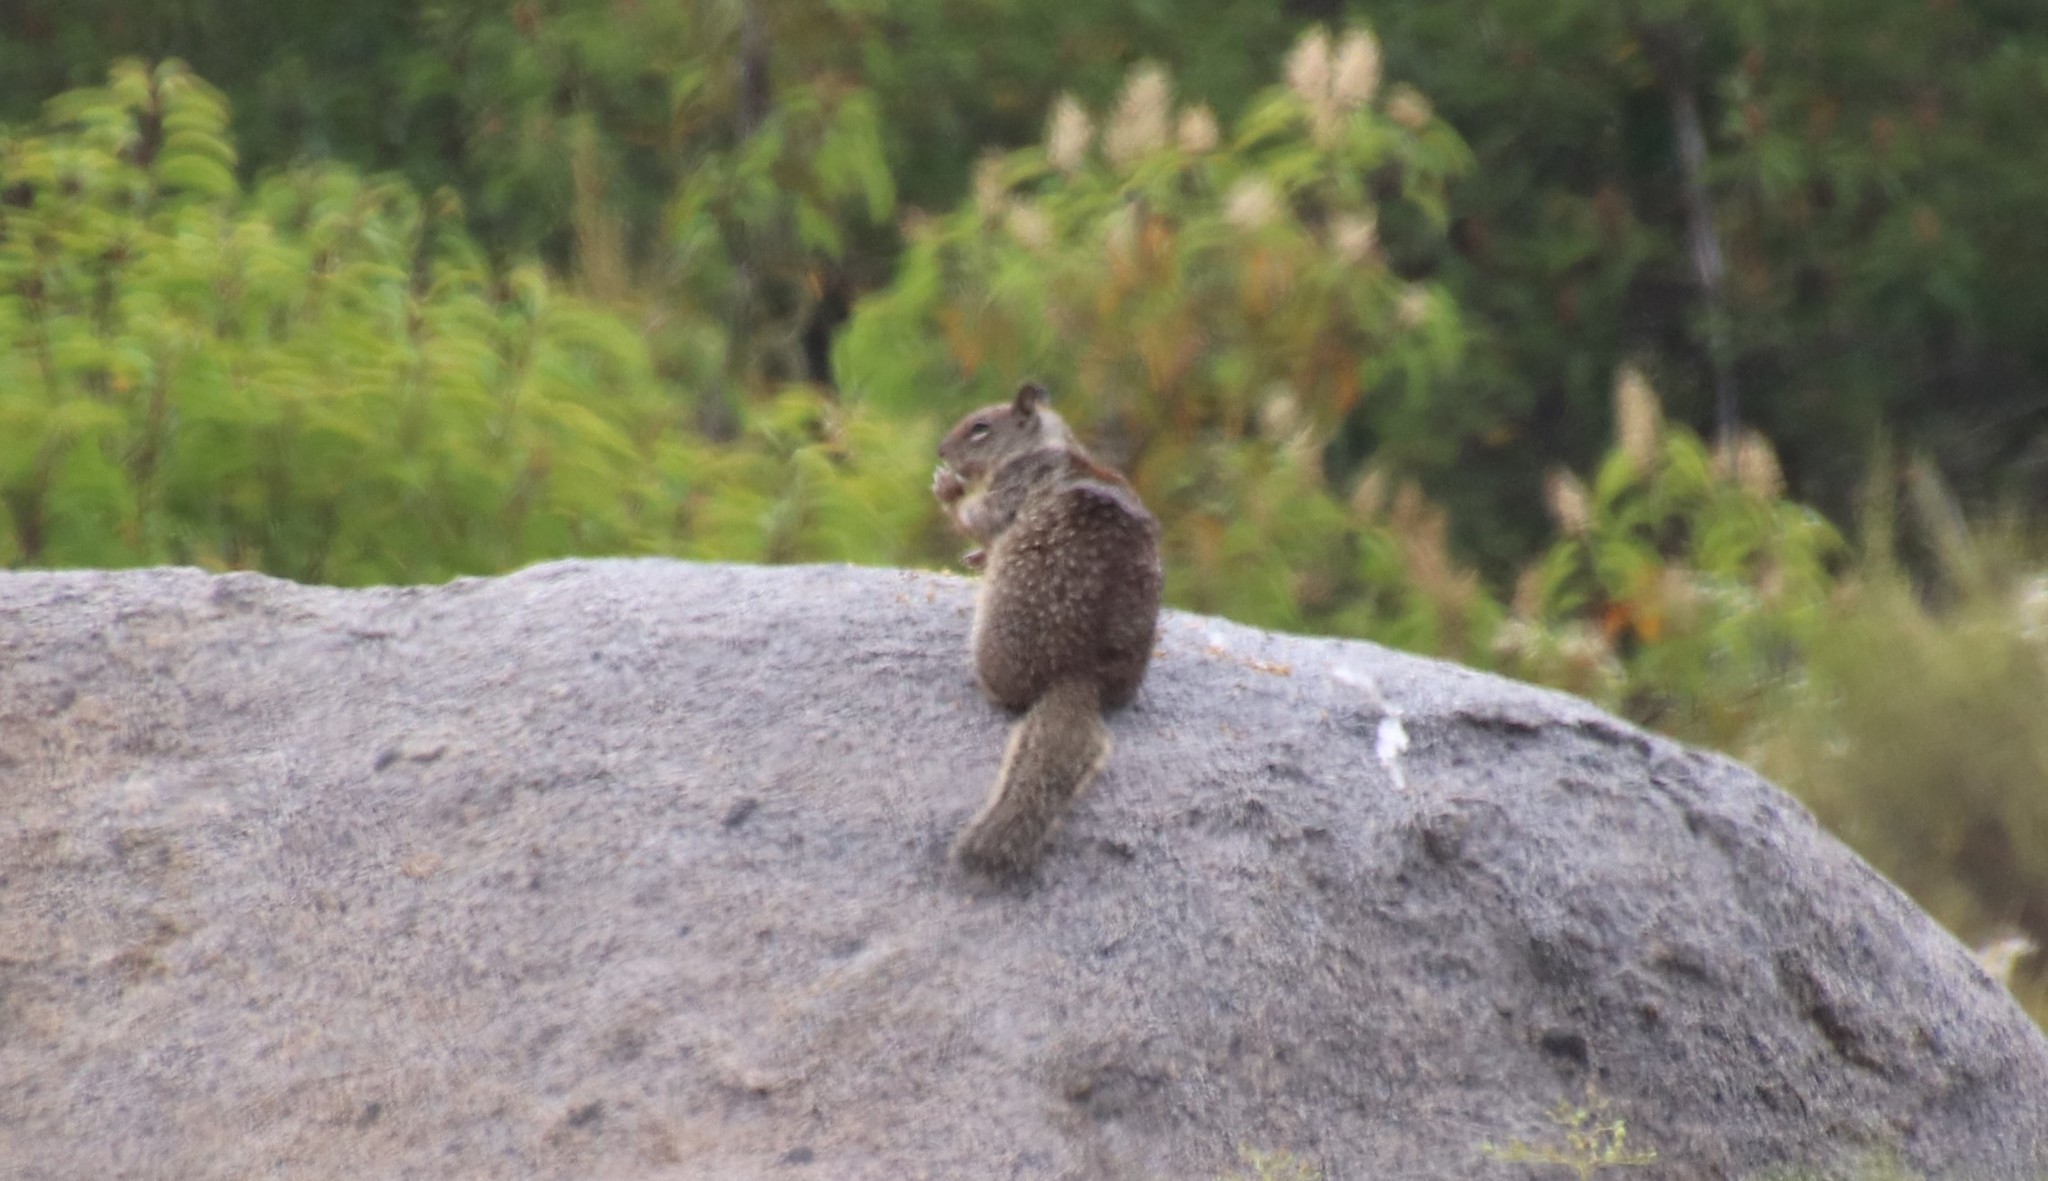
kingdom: Animalia
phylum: Chordata
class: Mammalia
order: Rodentia
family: Sciuridae
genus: Otospermophilus
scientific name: Otospermophilus beecheyi
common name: California ground squirrel
